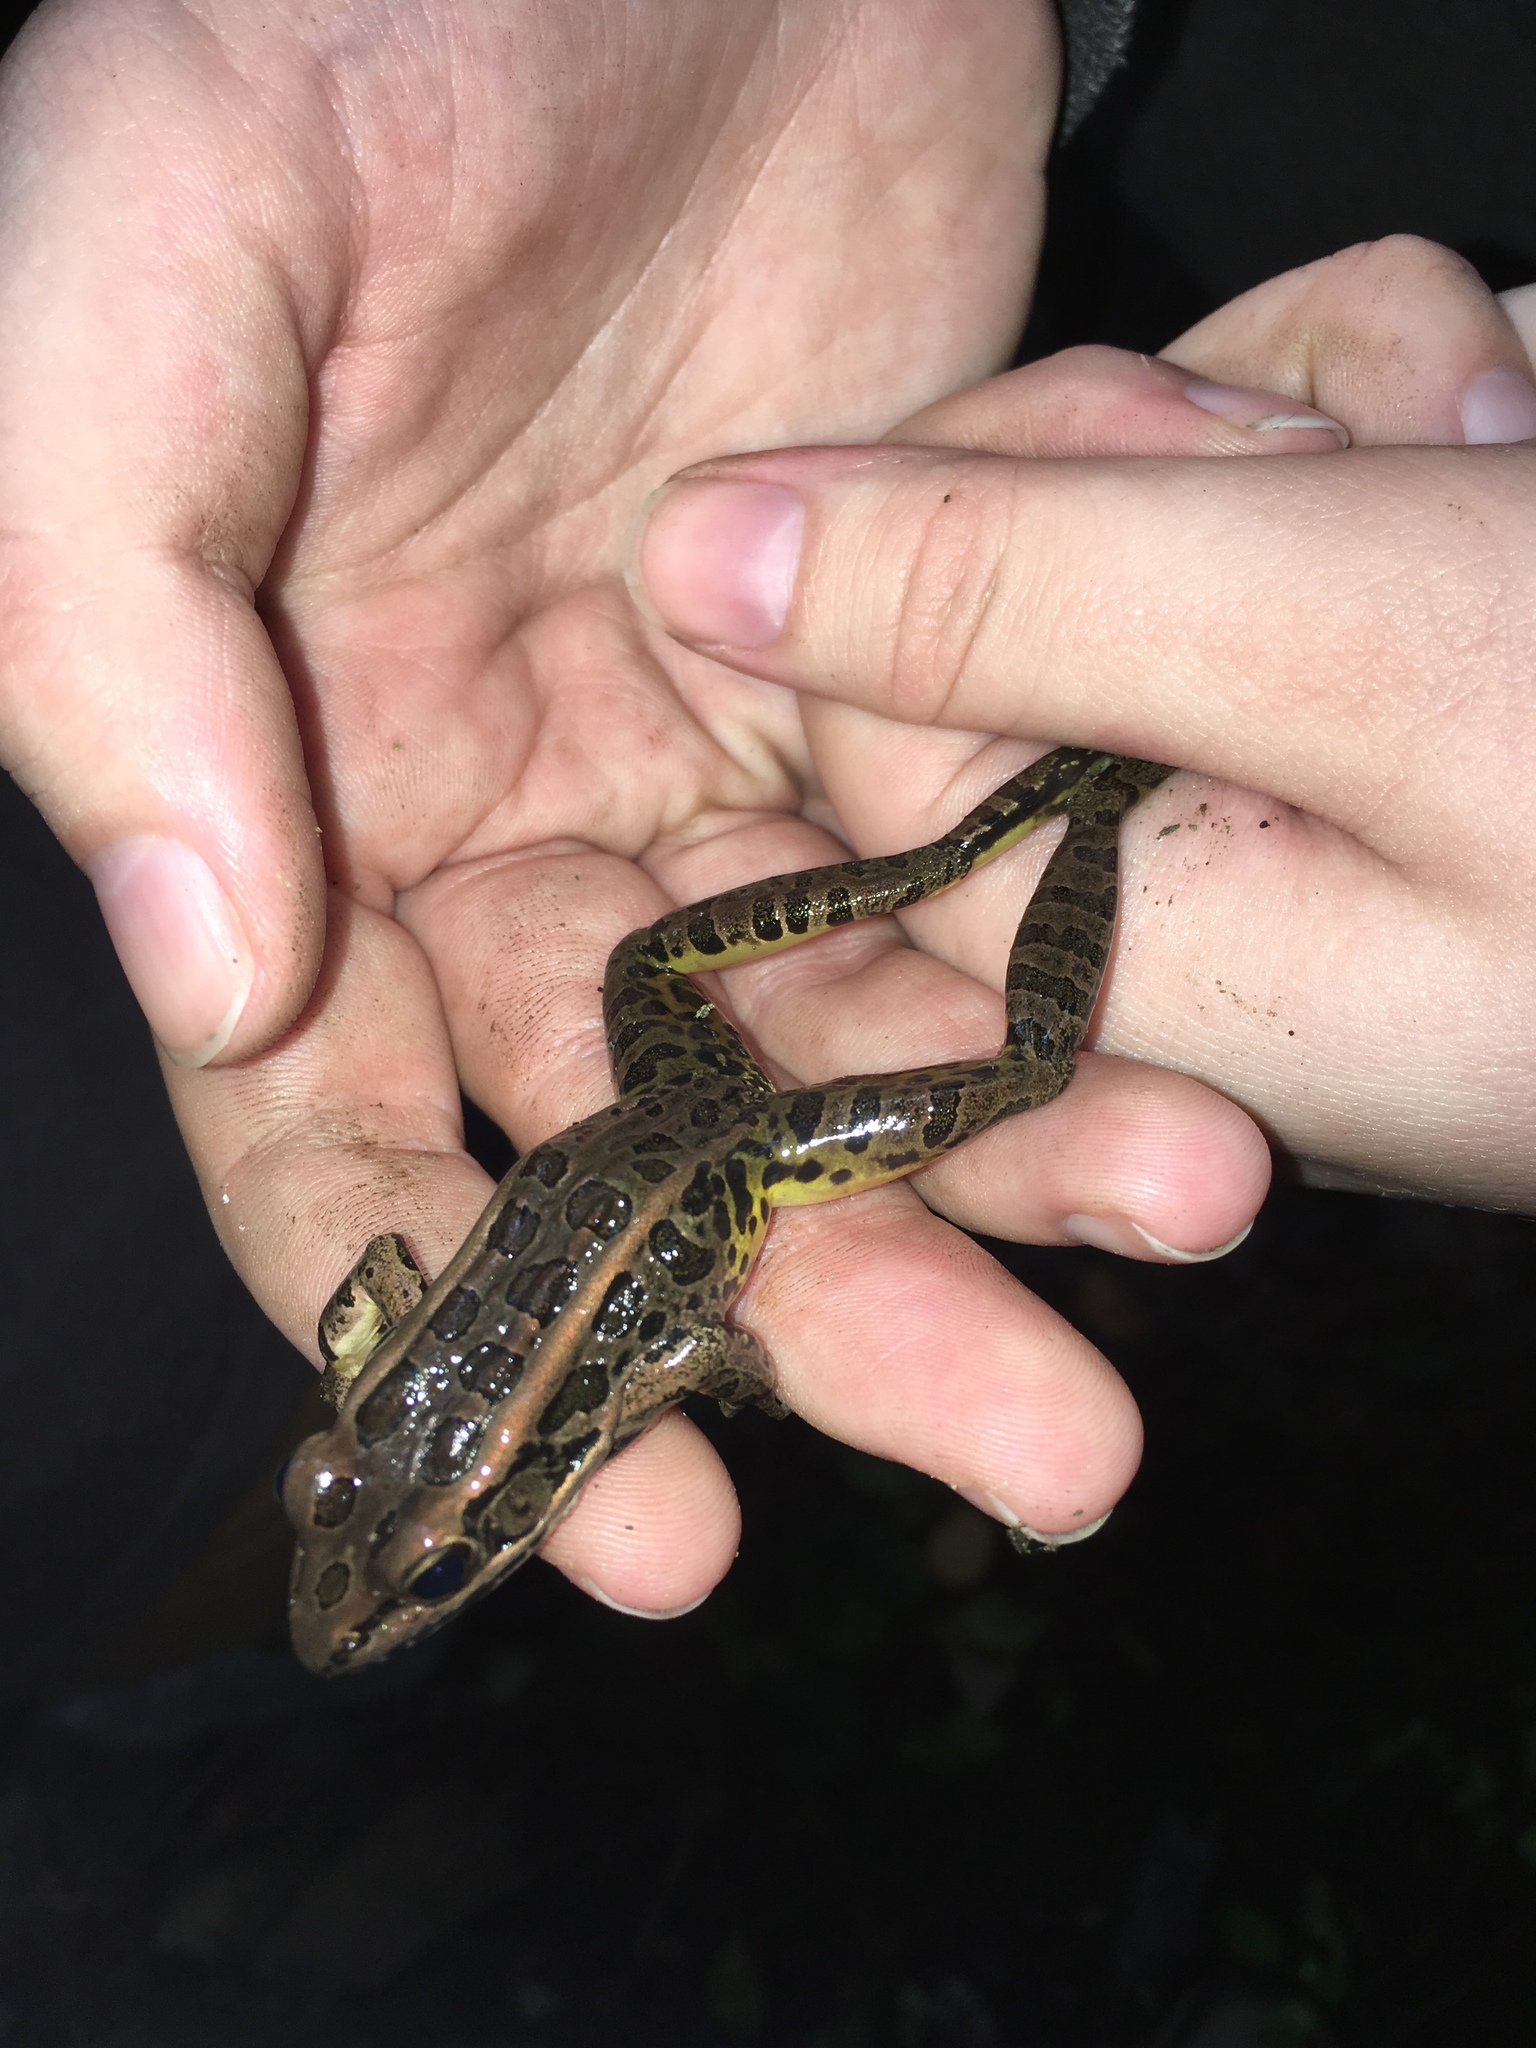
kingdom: Animalia
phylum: Chordata
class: Amphibia
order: Anura
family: Ranidae
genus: Lithobates
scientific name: Lithobates palustris
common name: Pickerel frog
